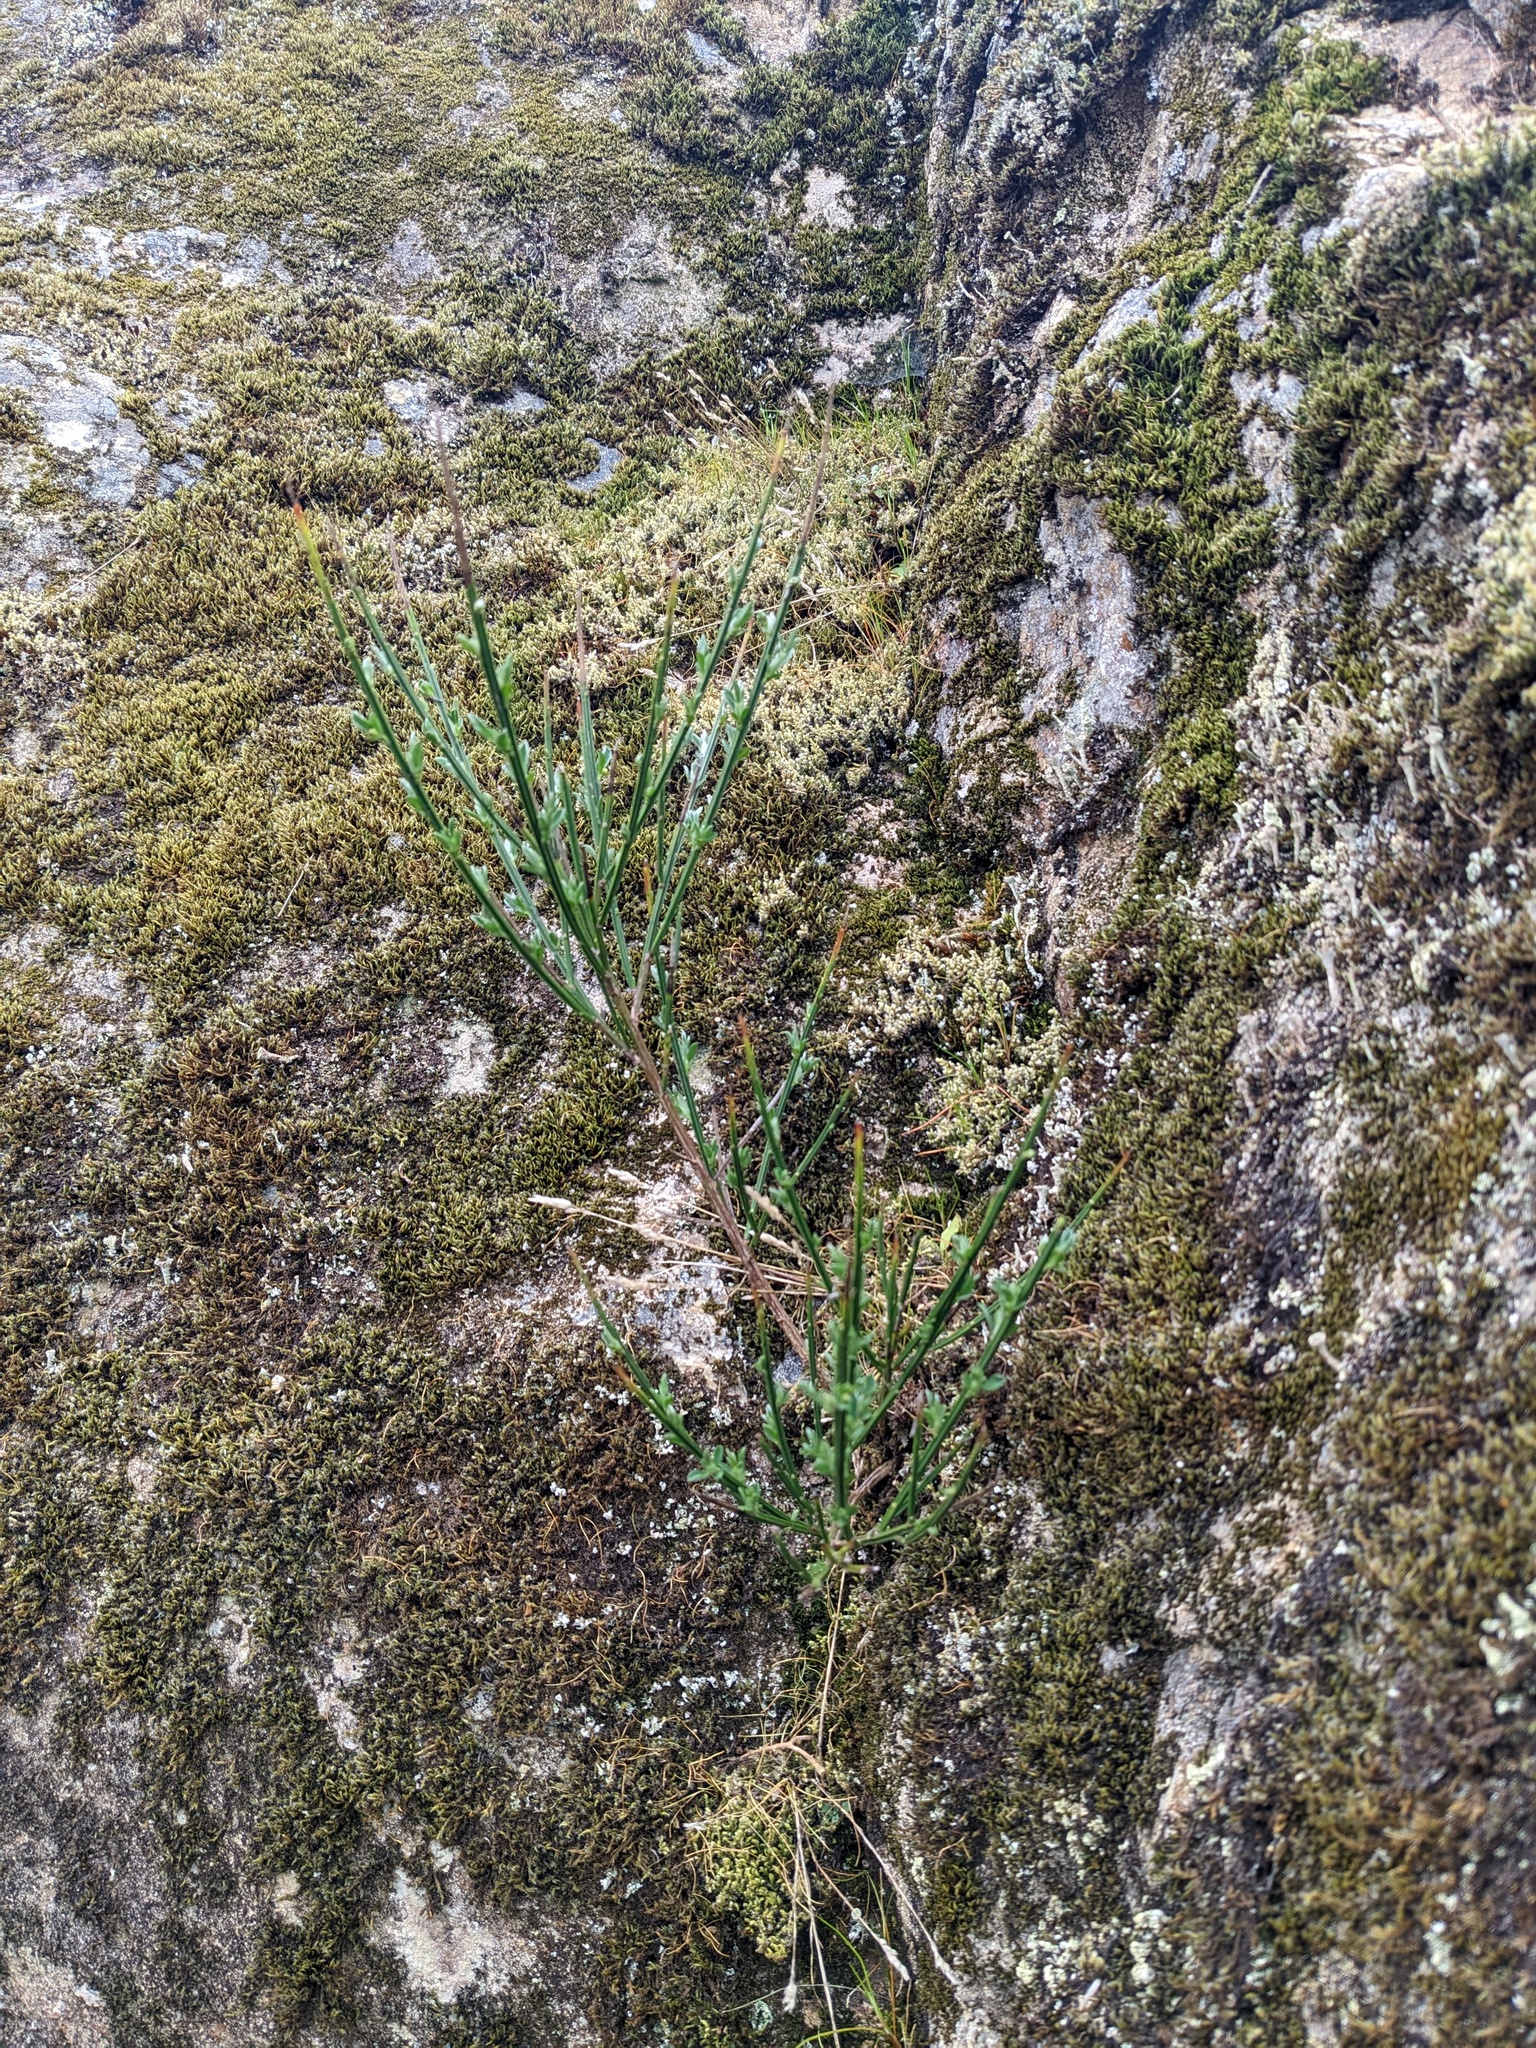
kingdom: Plantae
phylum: Tracheophyta
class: Magnoliopsida
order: Fabales
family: Fabaceae
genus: Cytisus
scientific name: Cytisus scoparius
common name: Scotch broom
